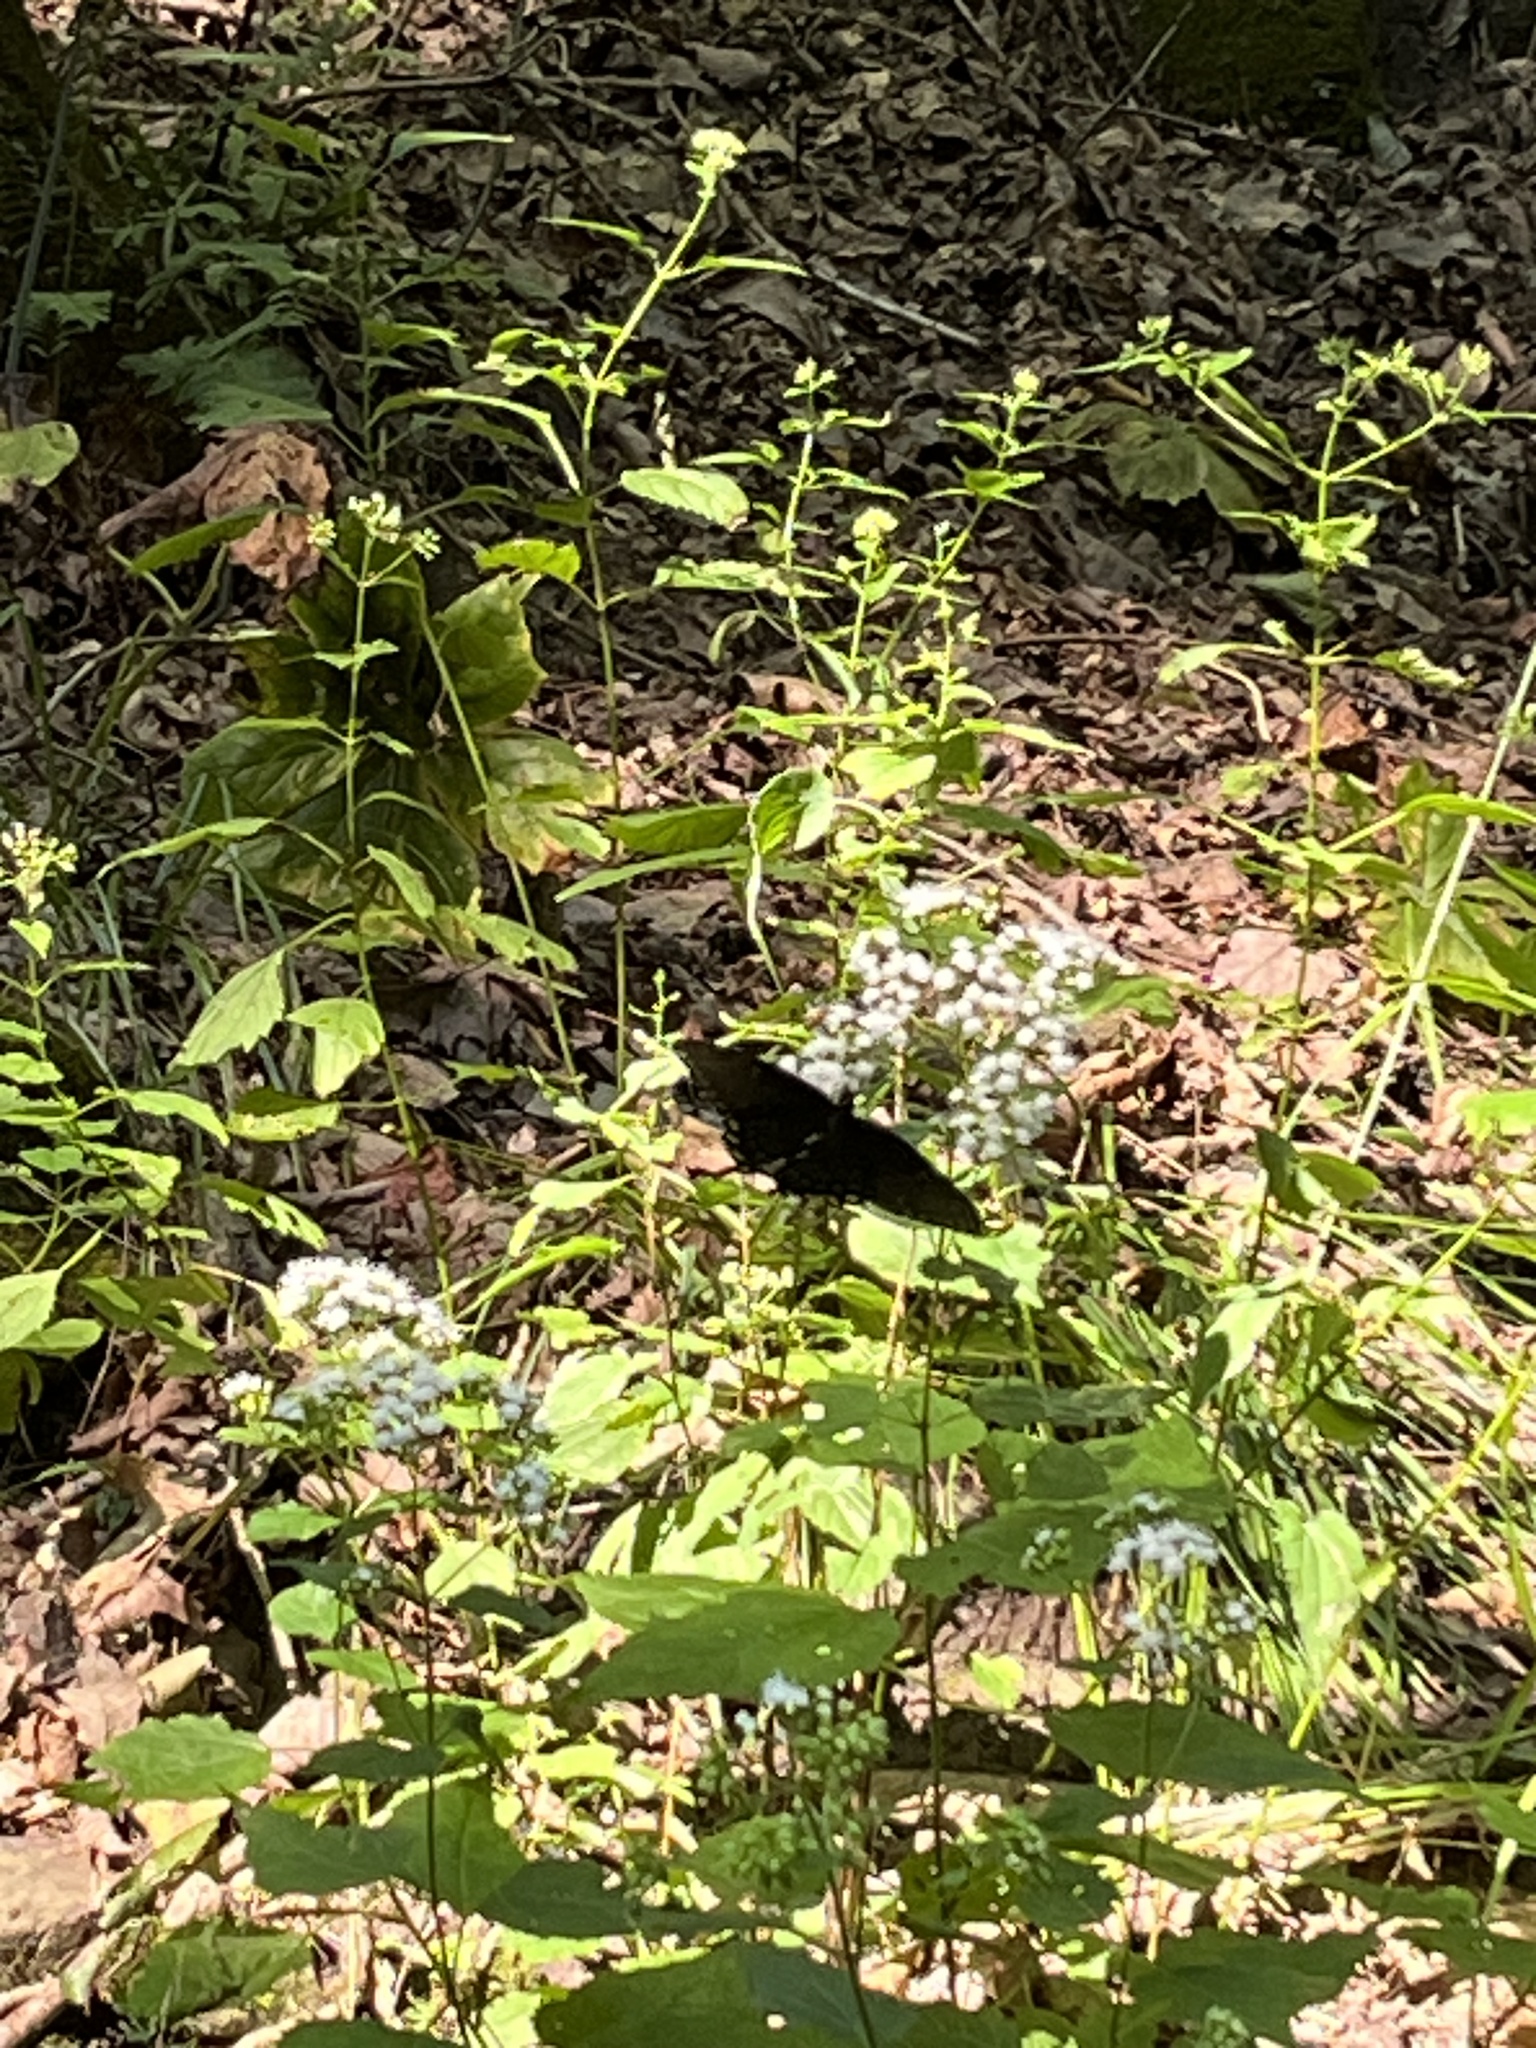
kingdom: Animalia
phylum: Arthropoda
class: Insecta
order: Lepidoptera
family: Papilionidae
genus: Papilio
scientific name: Papilio glaucus
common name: Tiger swallowtail
